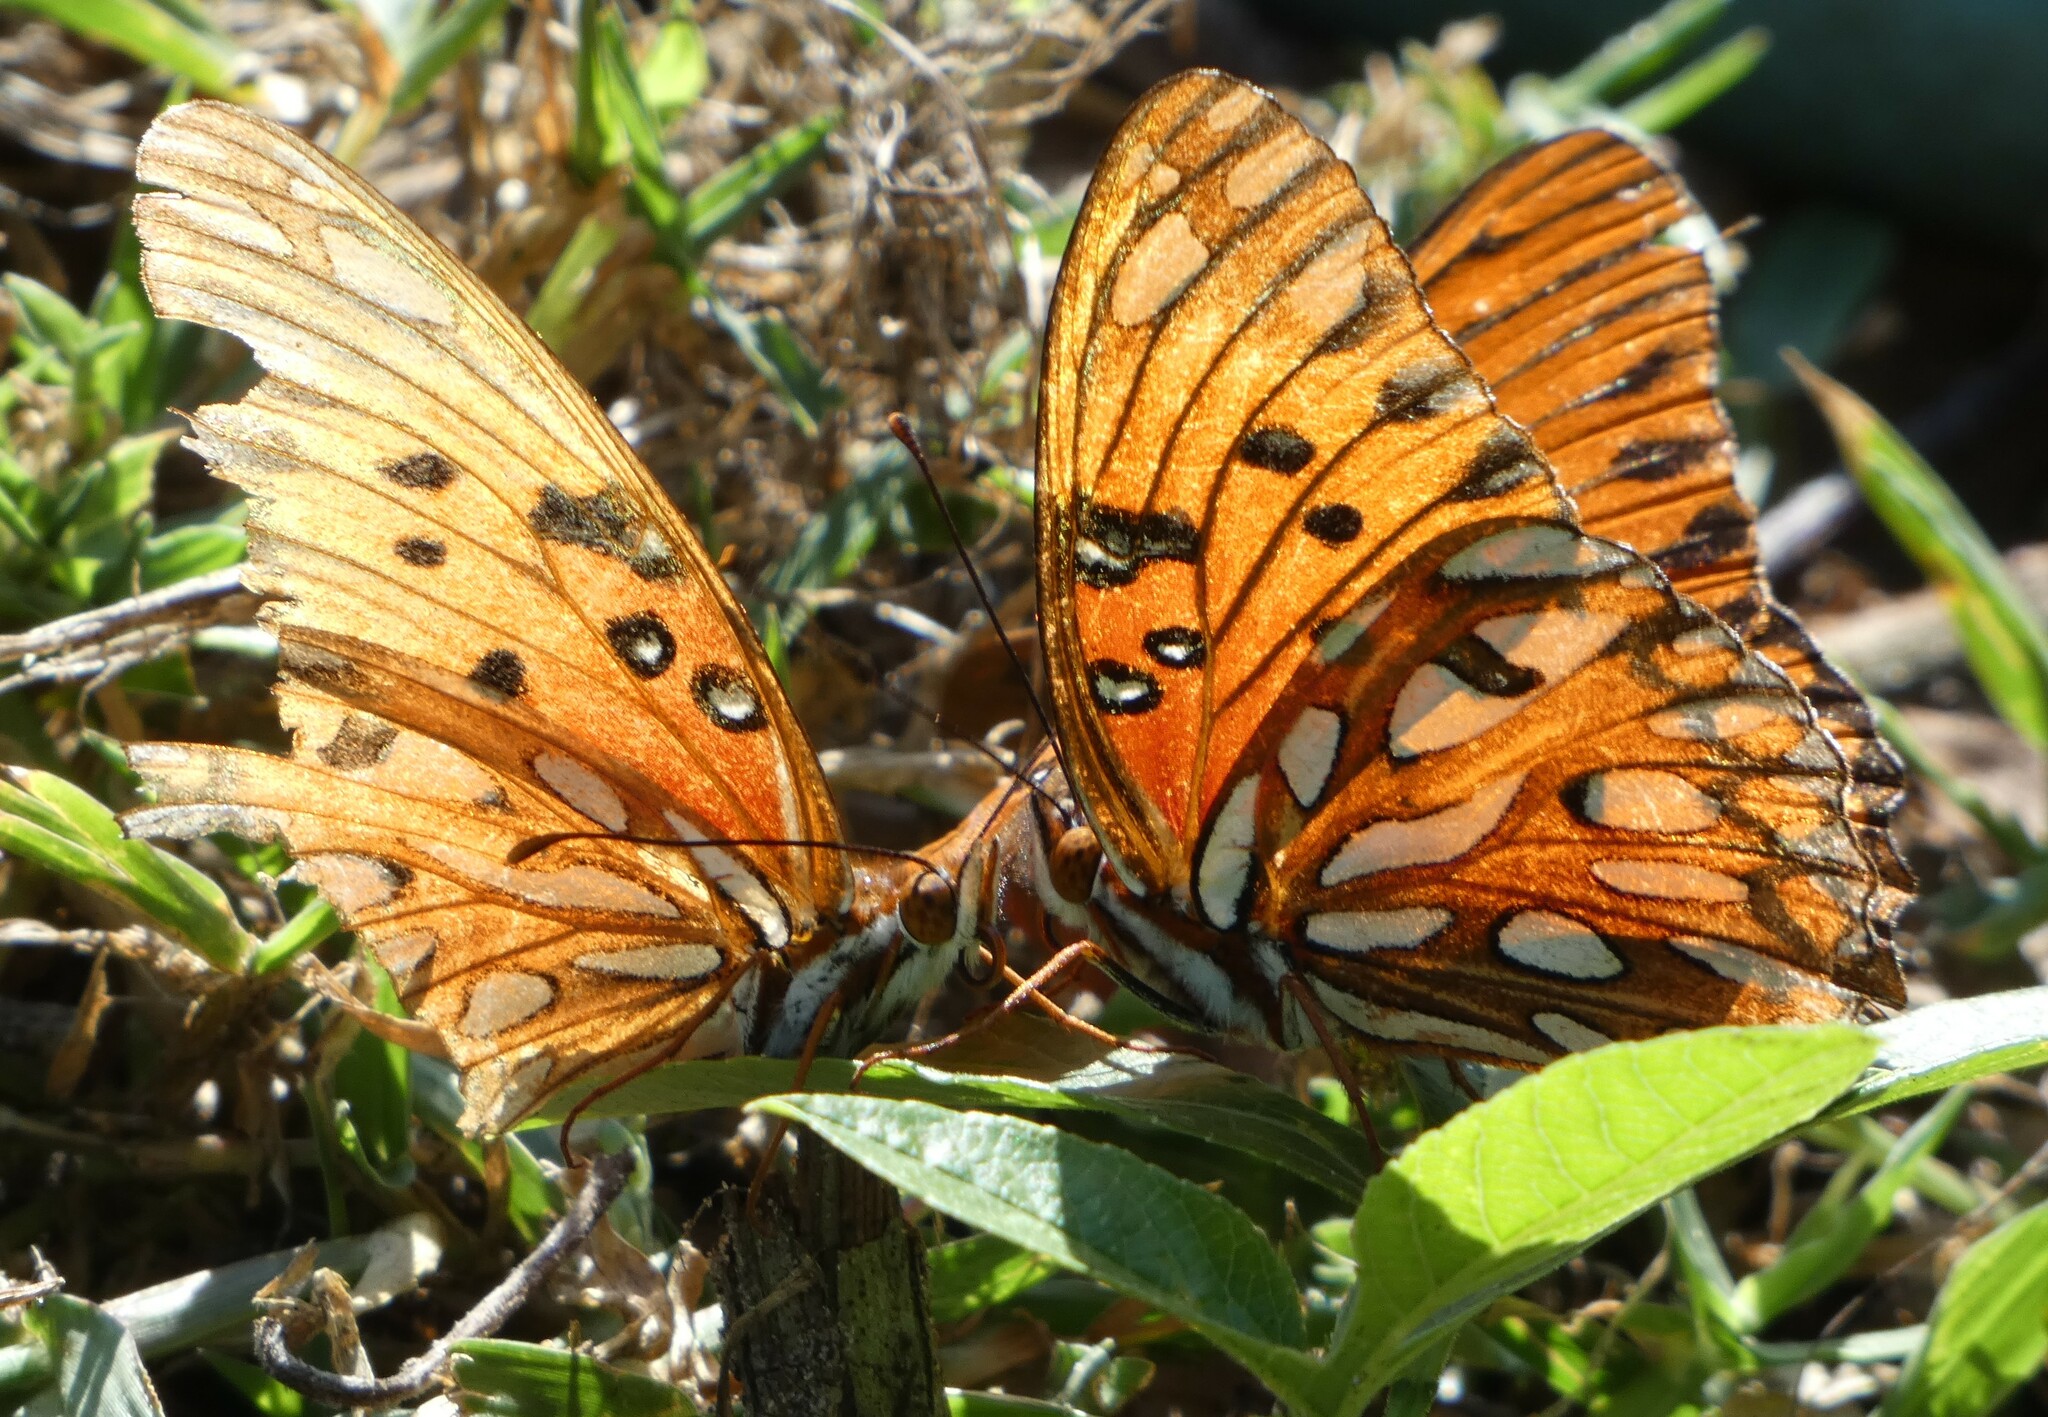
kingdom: Animalia
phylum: Arthropoda
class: Insecta
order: Lepidoptera
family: Nymphalidae
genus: Dione
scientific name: Dione vanillae
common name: Gulf fritillary
